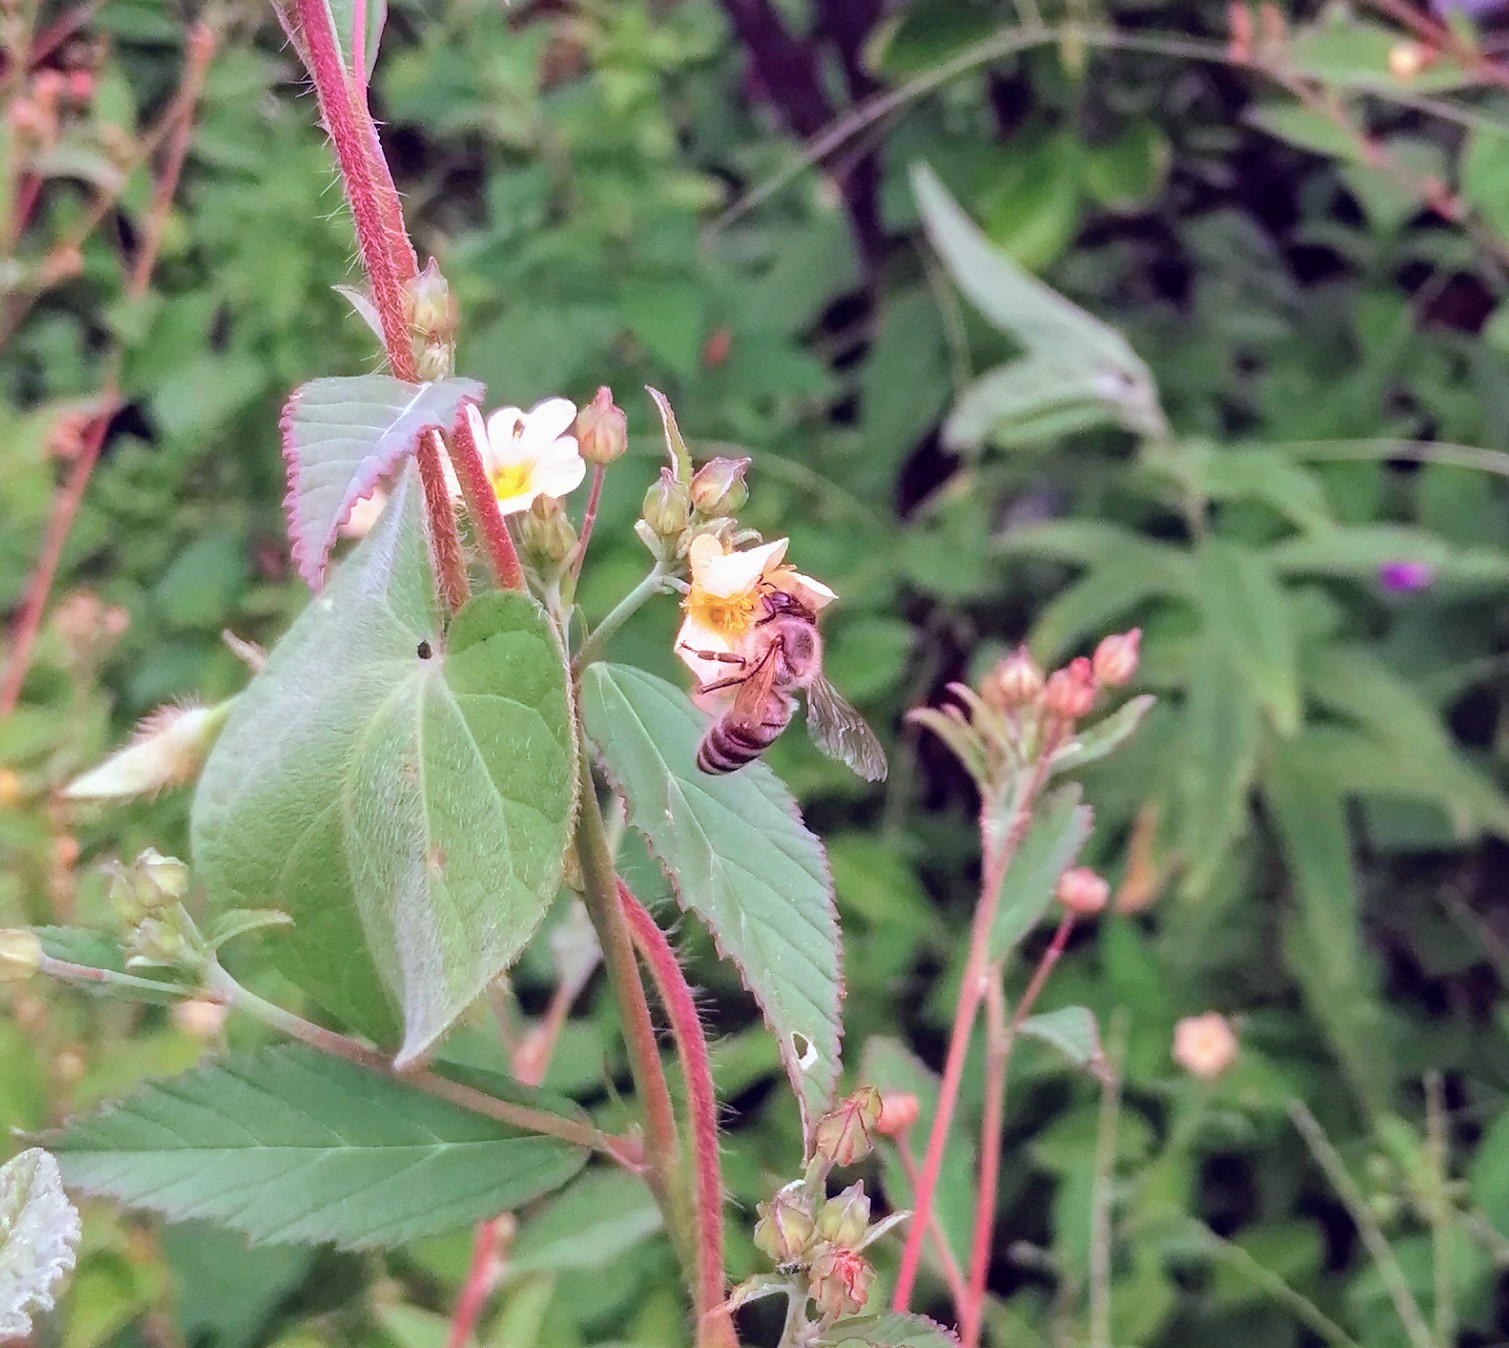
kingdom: Animalia
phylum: Arthropoda
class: Insecta
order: Hymenoptera
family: Apidae
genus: Apis
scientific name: Apis mellifera
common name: Honey bee
